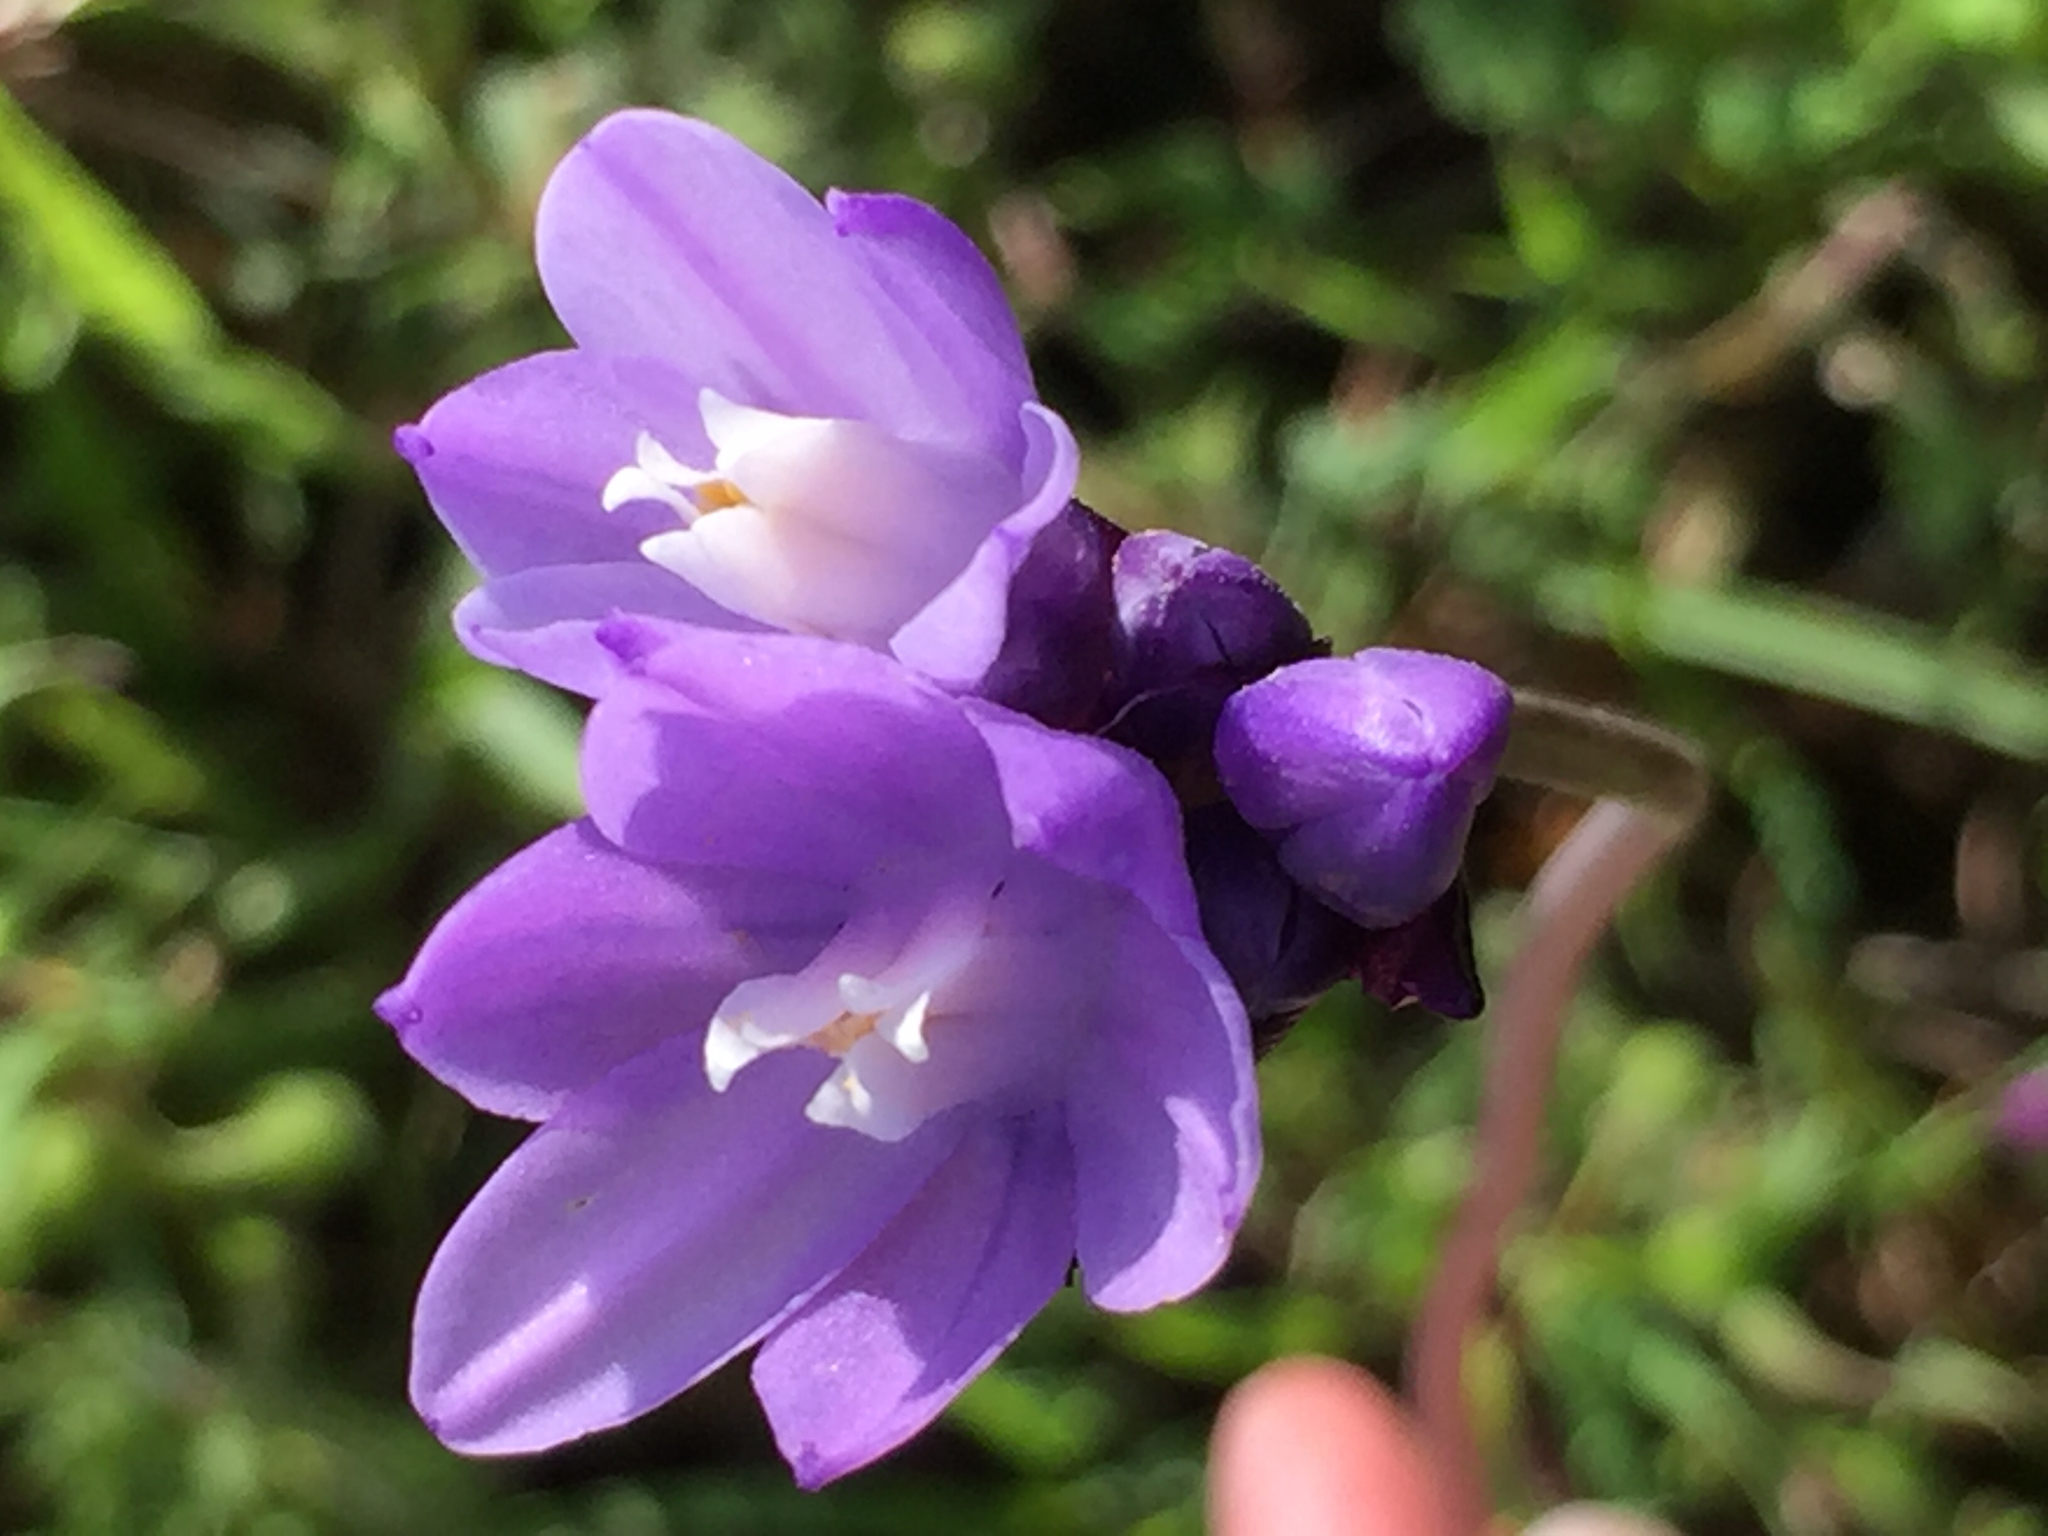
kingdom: Plantae
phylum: Tracheophyta
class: Liliopsida
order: Asparagales
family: Asparagaceae
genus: Dipterostemon
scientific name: Dipterostemon capitatus
